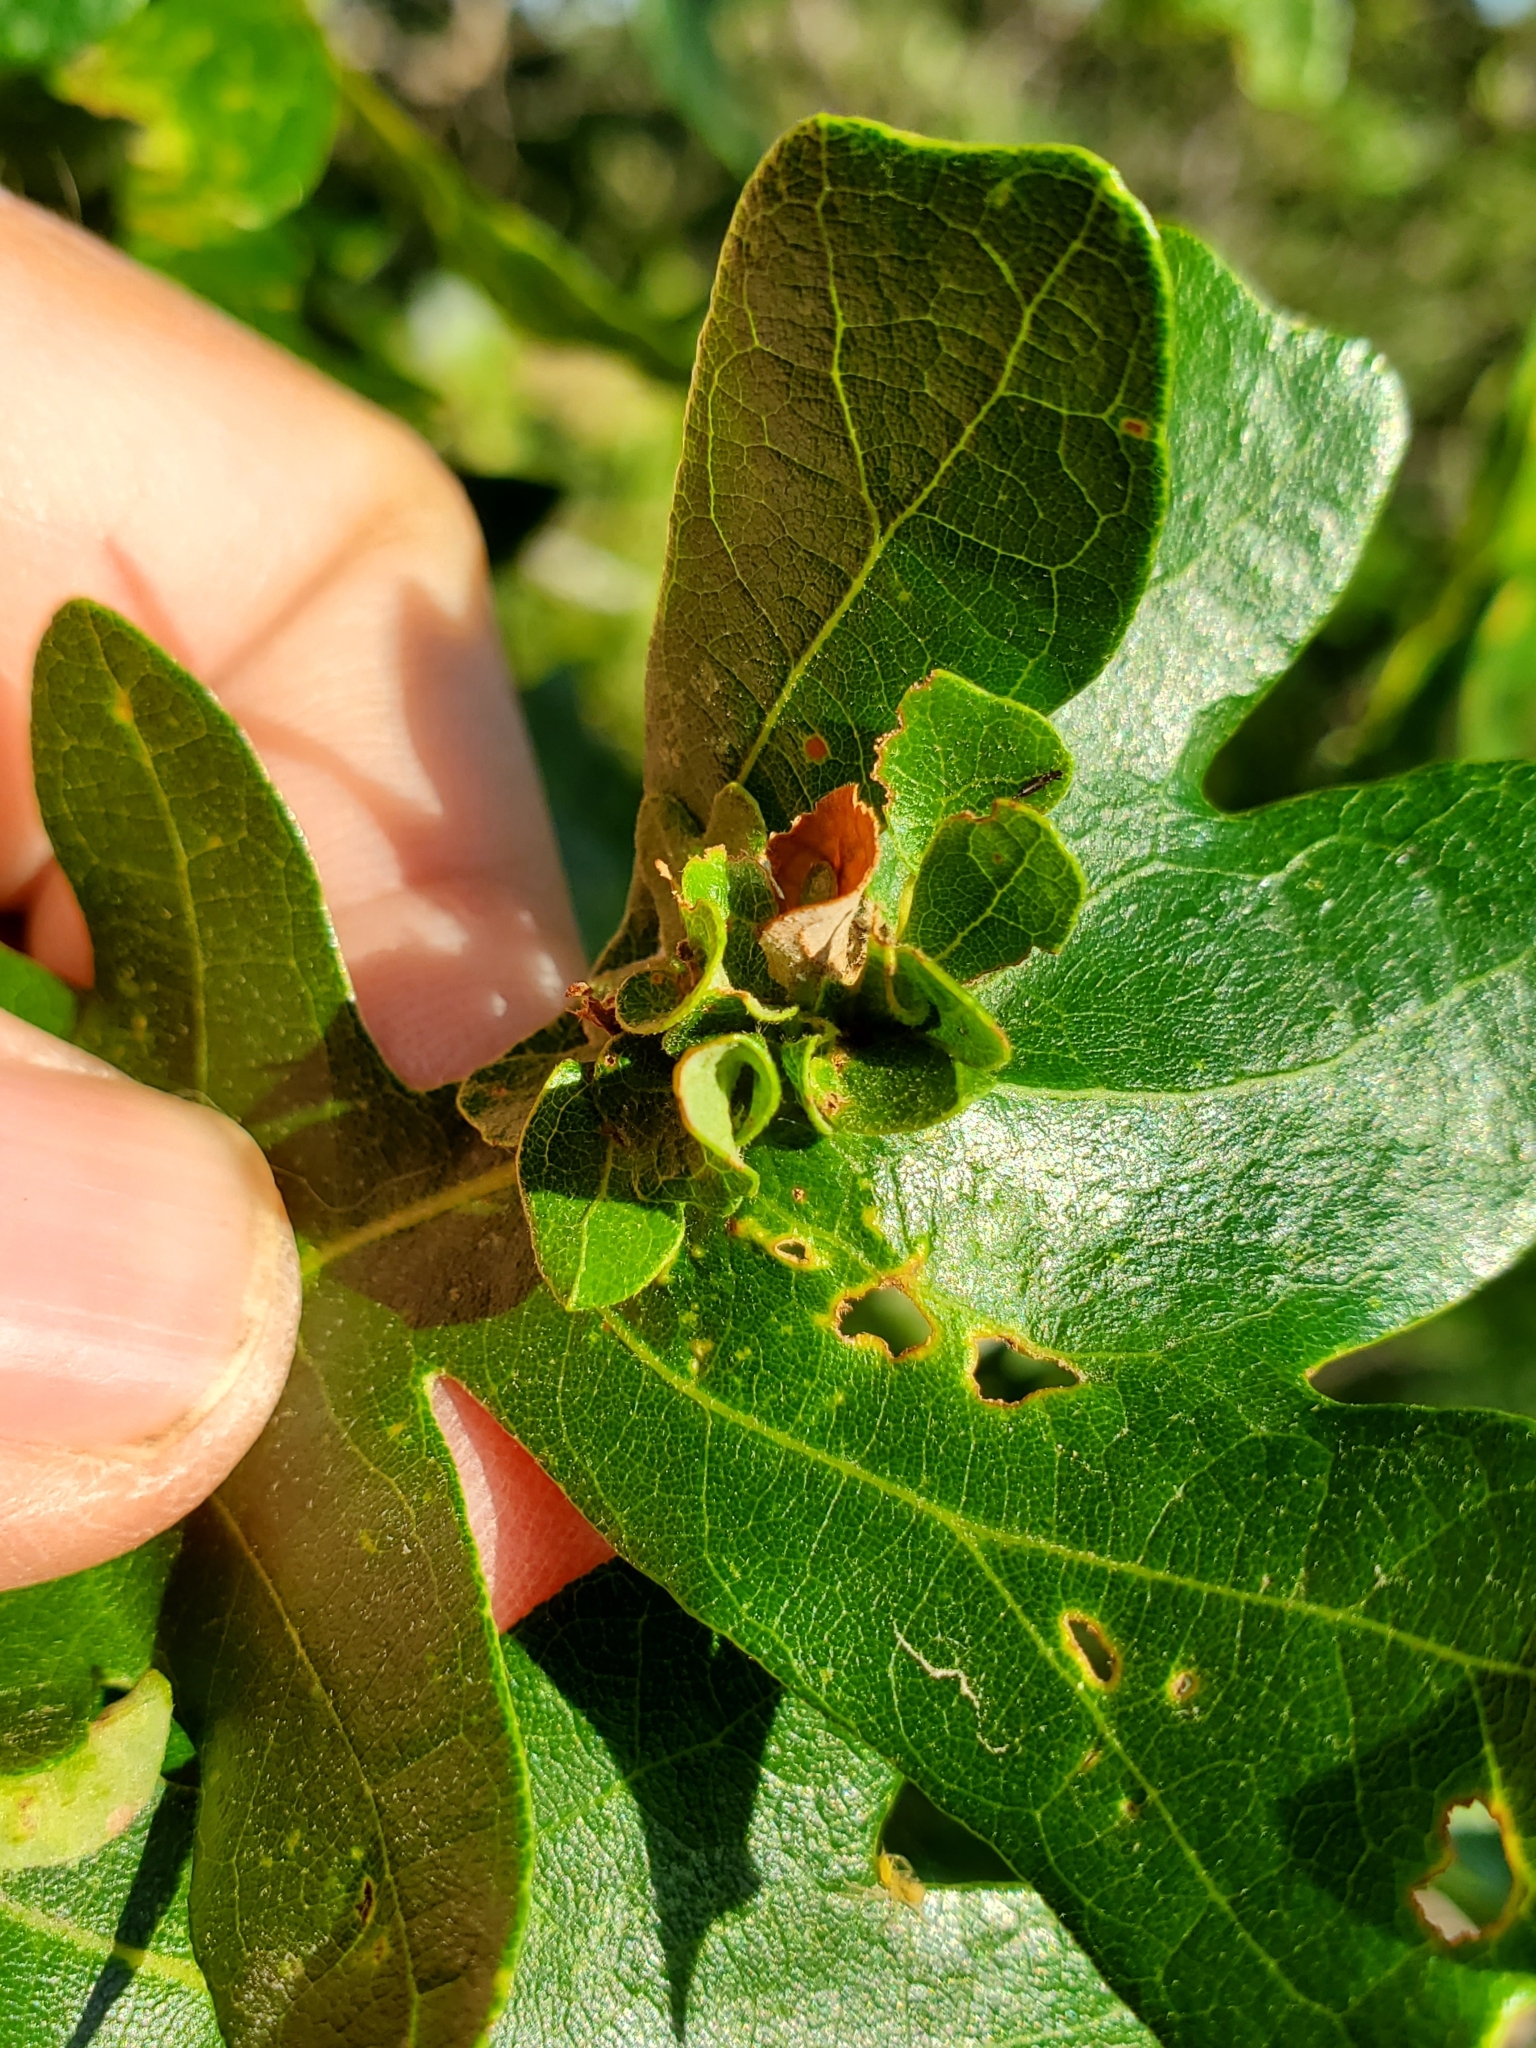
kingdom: Animalia
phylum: Arthropoda
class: Insecta
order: Hymenoptera
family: Cynipidae
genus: Andricus
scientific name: Andricus
